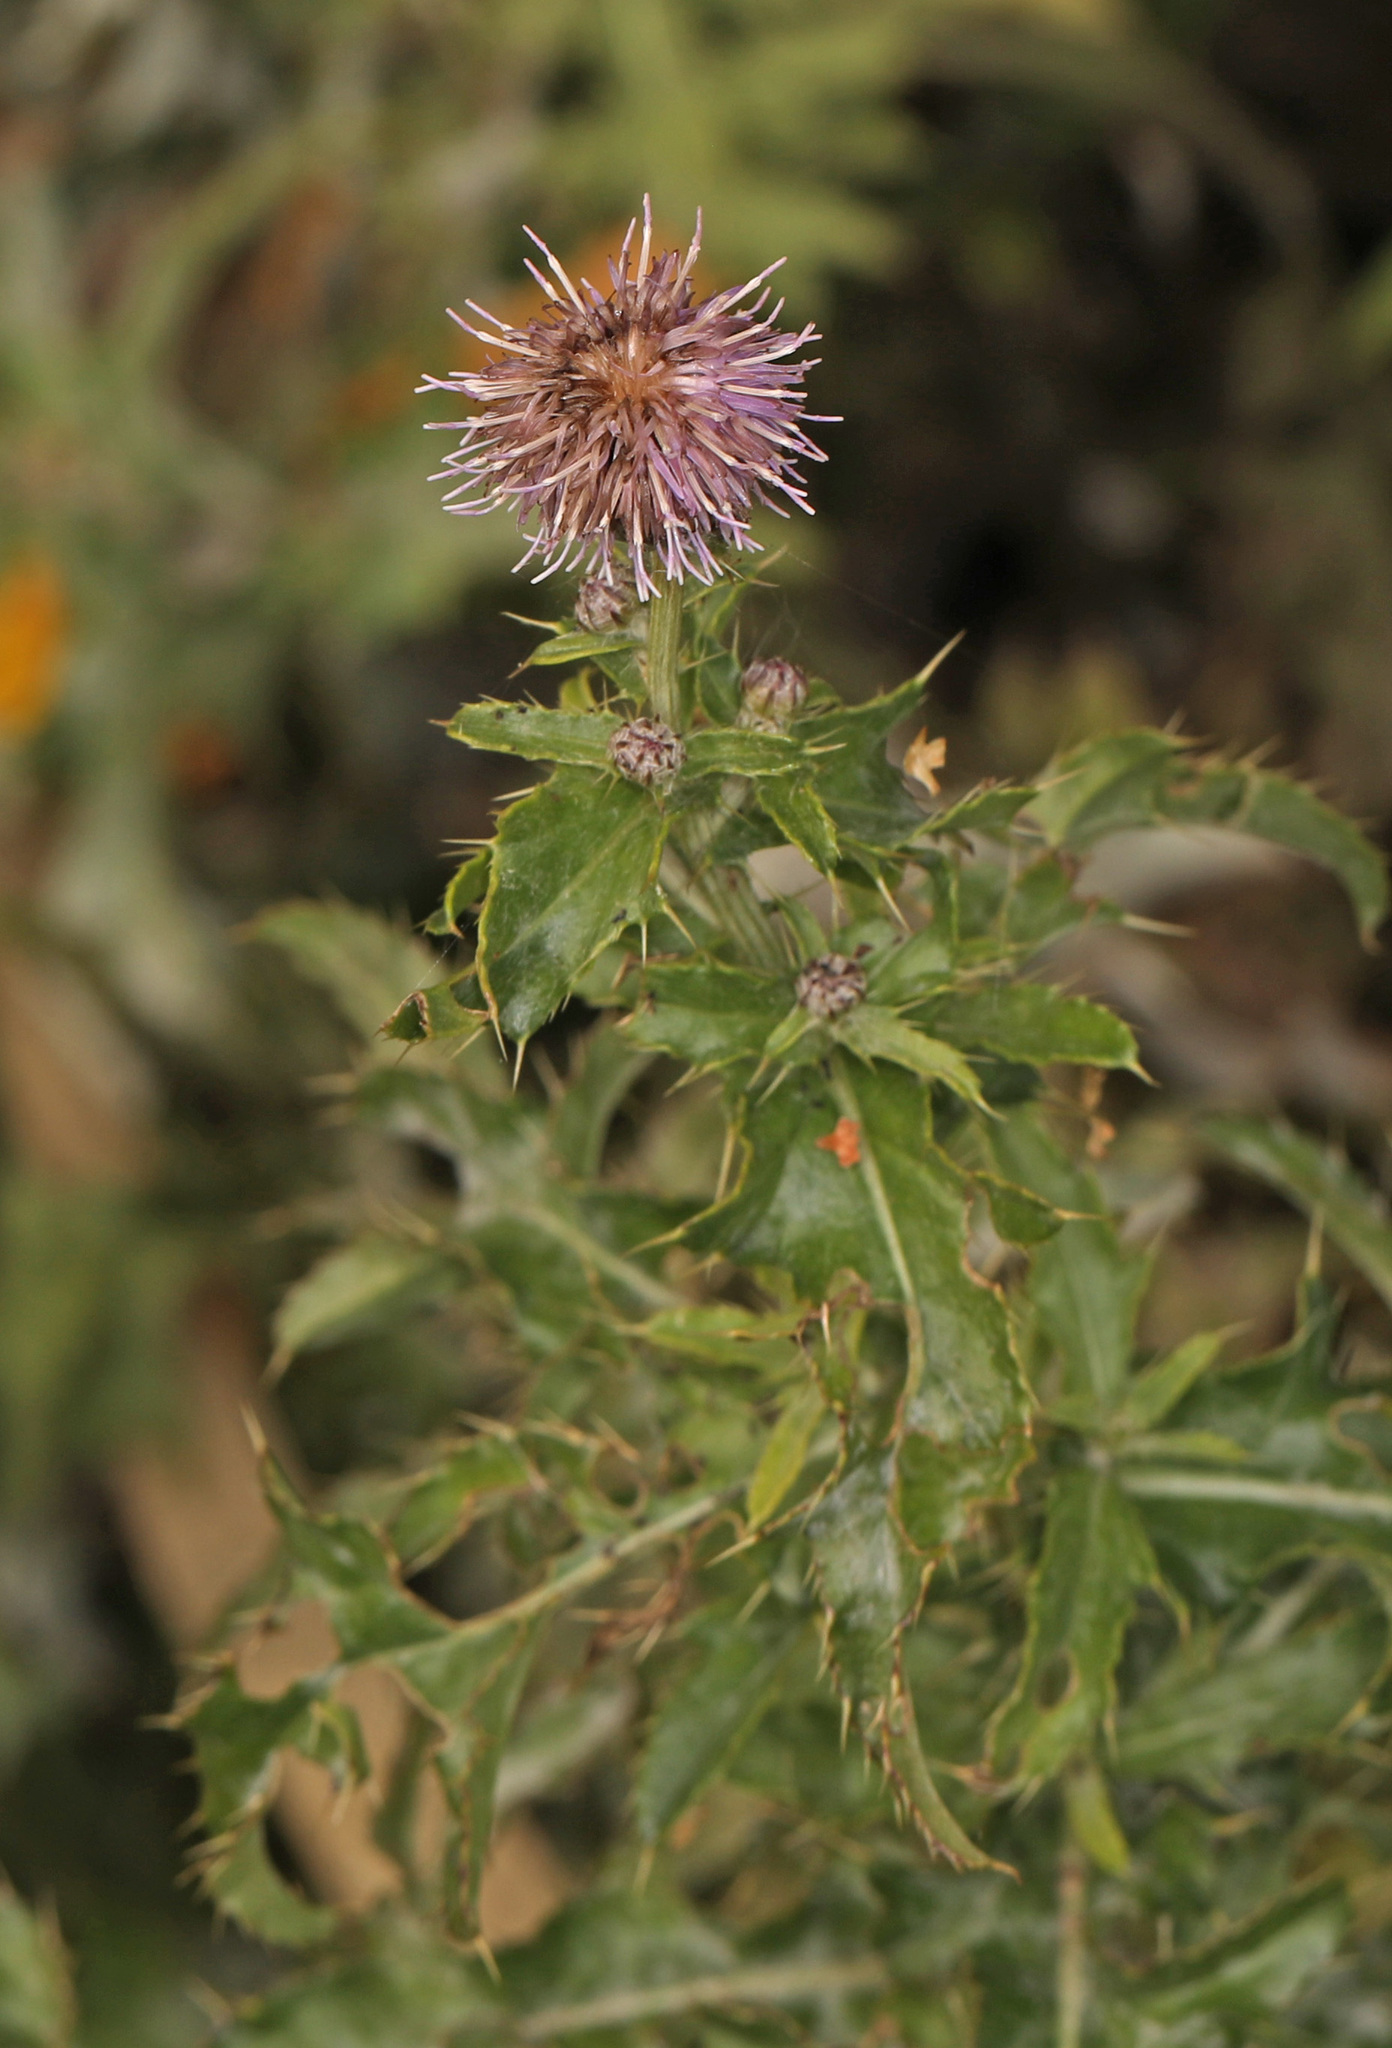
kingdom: Plantae
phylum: Tracheophyta
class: Magnoliopsida
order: Asterales
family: Asteraceae
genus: Cirsium
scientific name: Cirsium arvense
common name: Creeping thistle
